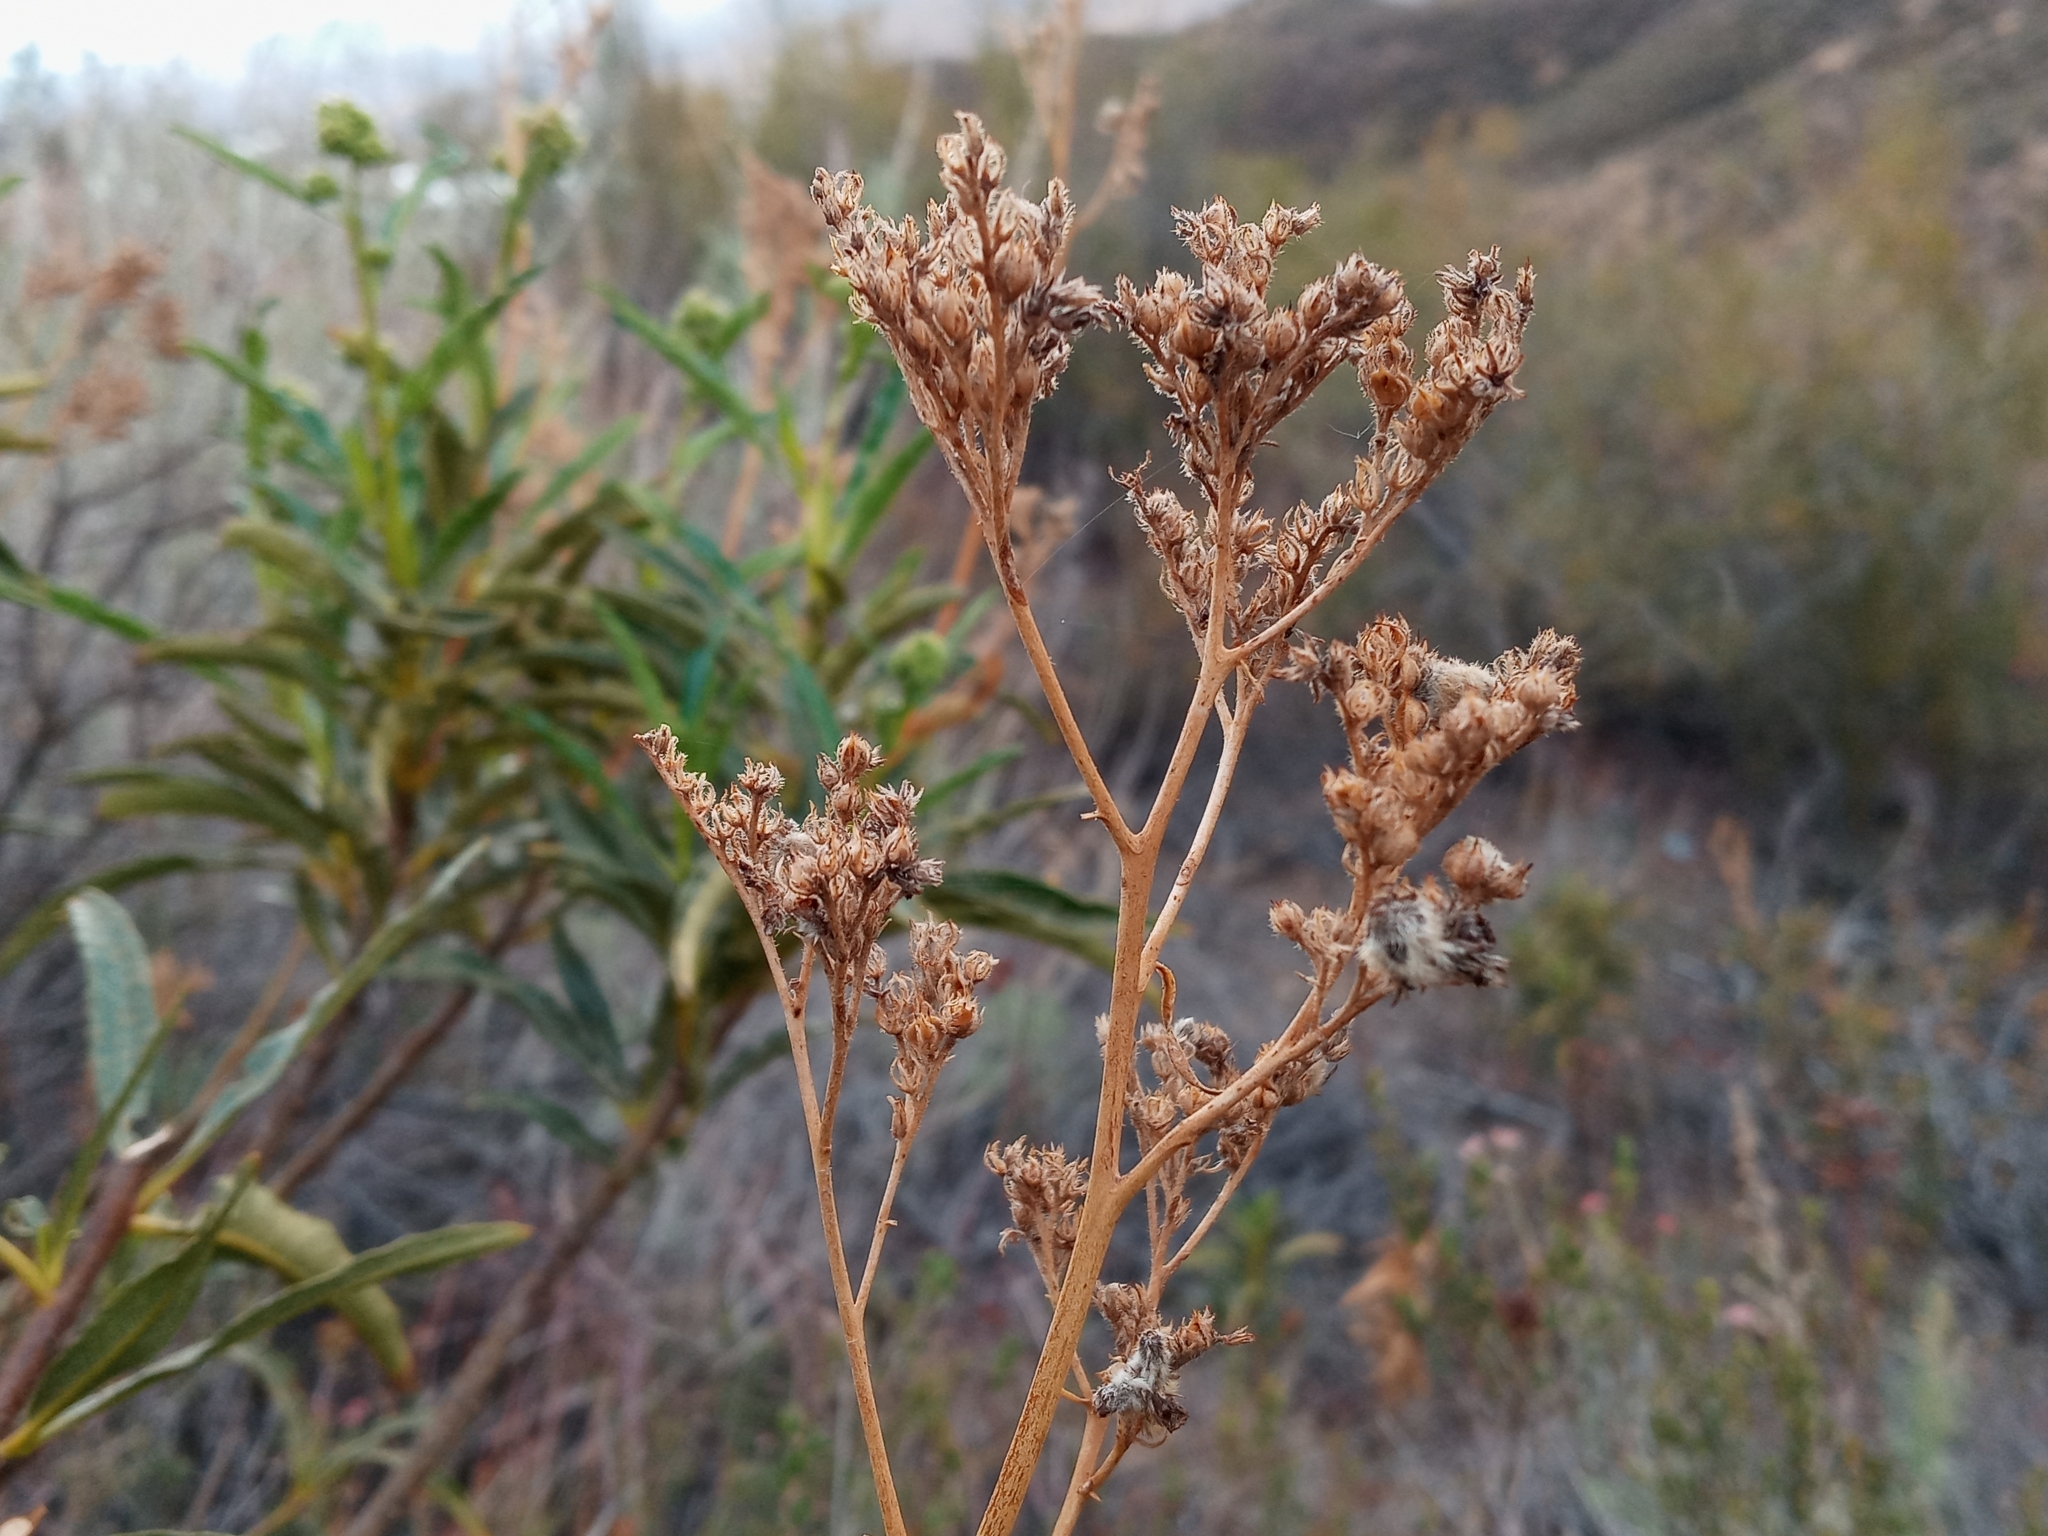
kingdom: Plantae
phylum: Tracheophyta
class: Magnoliopsida
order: Boraginales
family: Namaceae
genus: Eriodictyon
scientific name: Eriodictyon trichocalyx
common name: Hairy yerba-santa
